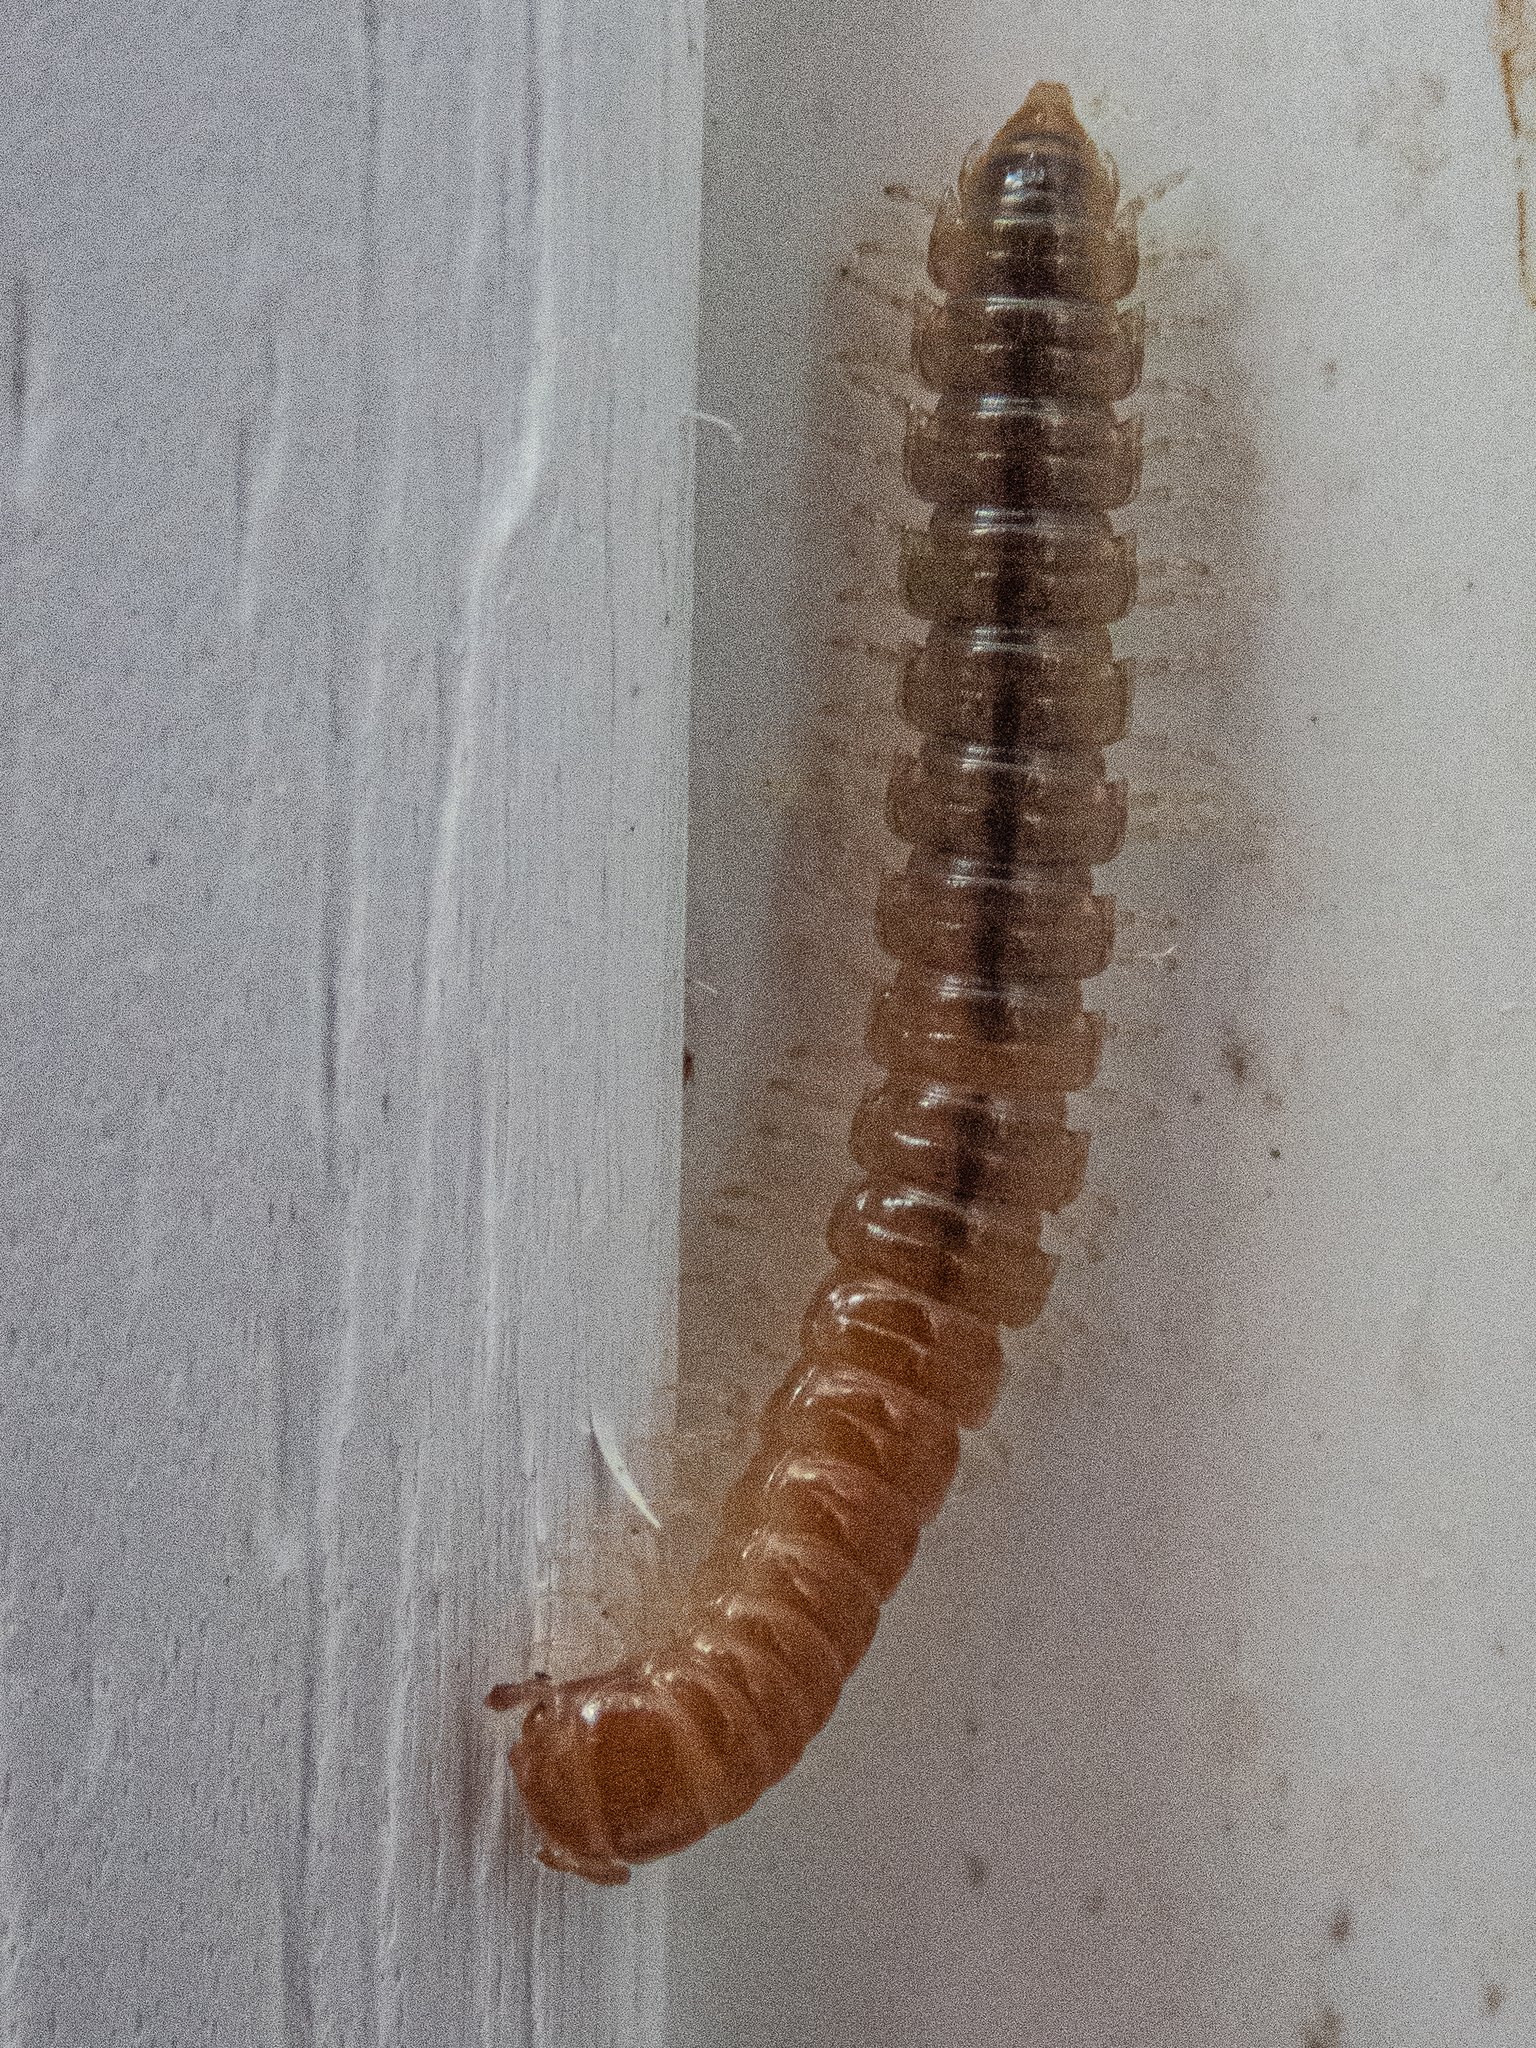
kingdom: Animalia
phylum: Arthropoda
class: Diplopoda
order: Polydesmida
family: Paradoxosomatidae
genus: Oxidus
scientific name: Oxidus gracilis
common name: Greenhouse millipede
